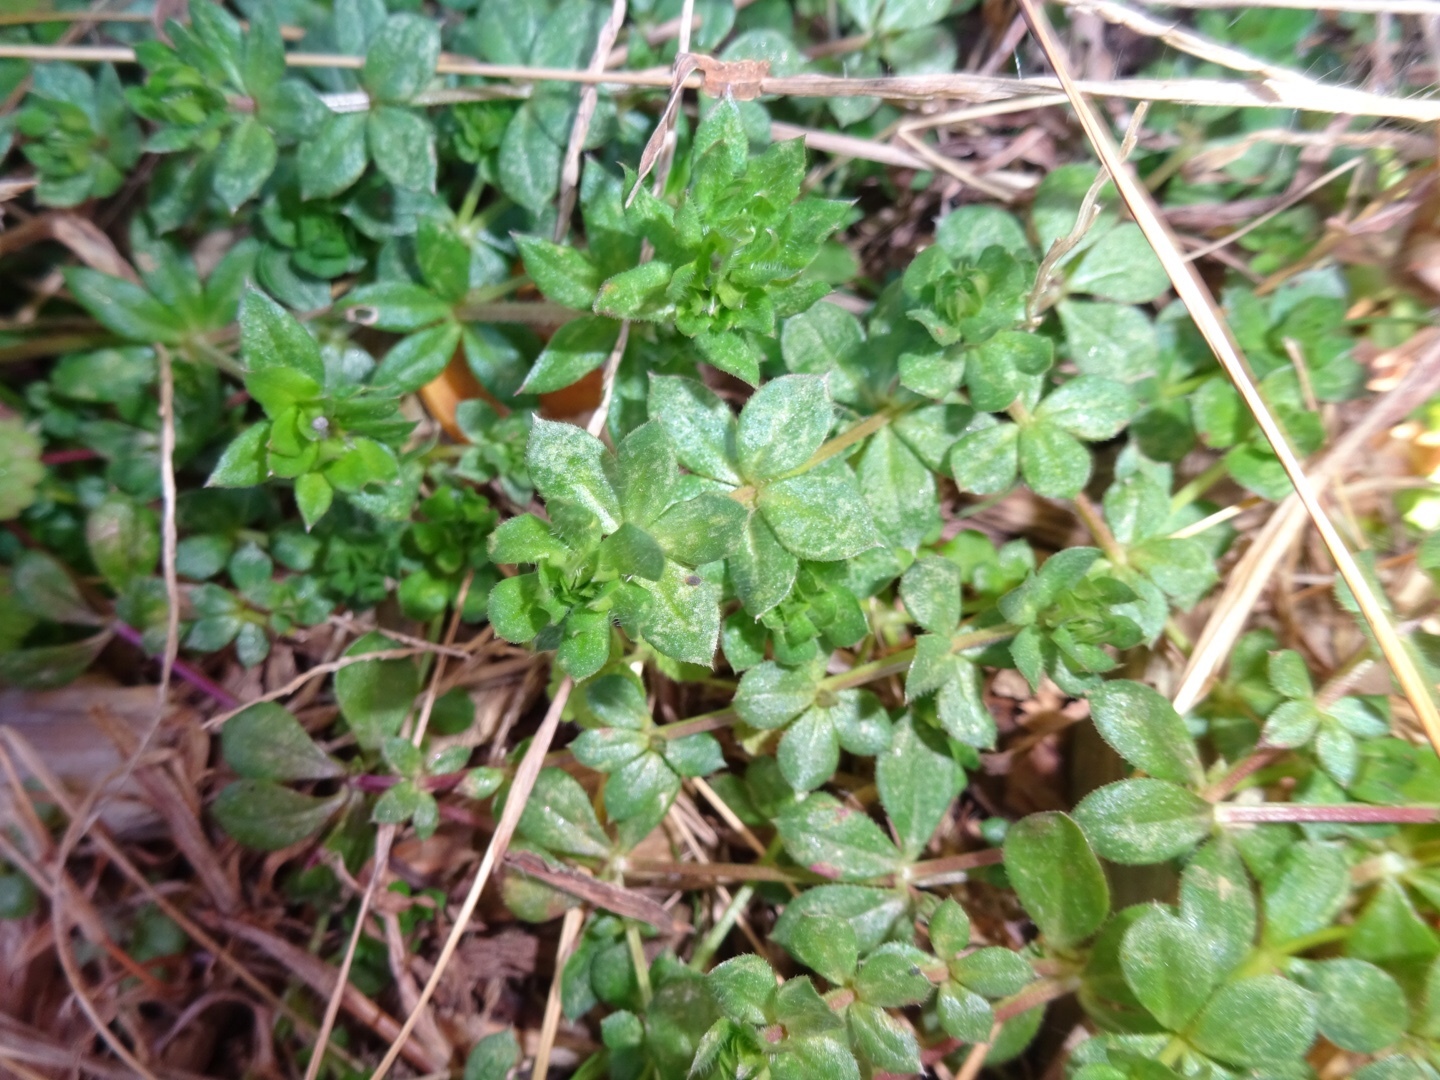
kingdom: Plantae
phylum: Tracheophyta
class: Magnoliopsida
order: Gentianales
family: Rubiaceae
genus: Sherardia
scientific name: Sherardia arvensis
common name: Field madder
